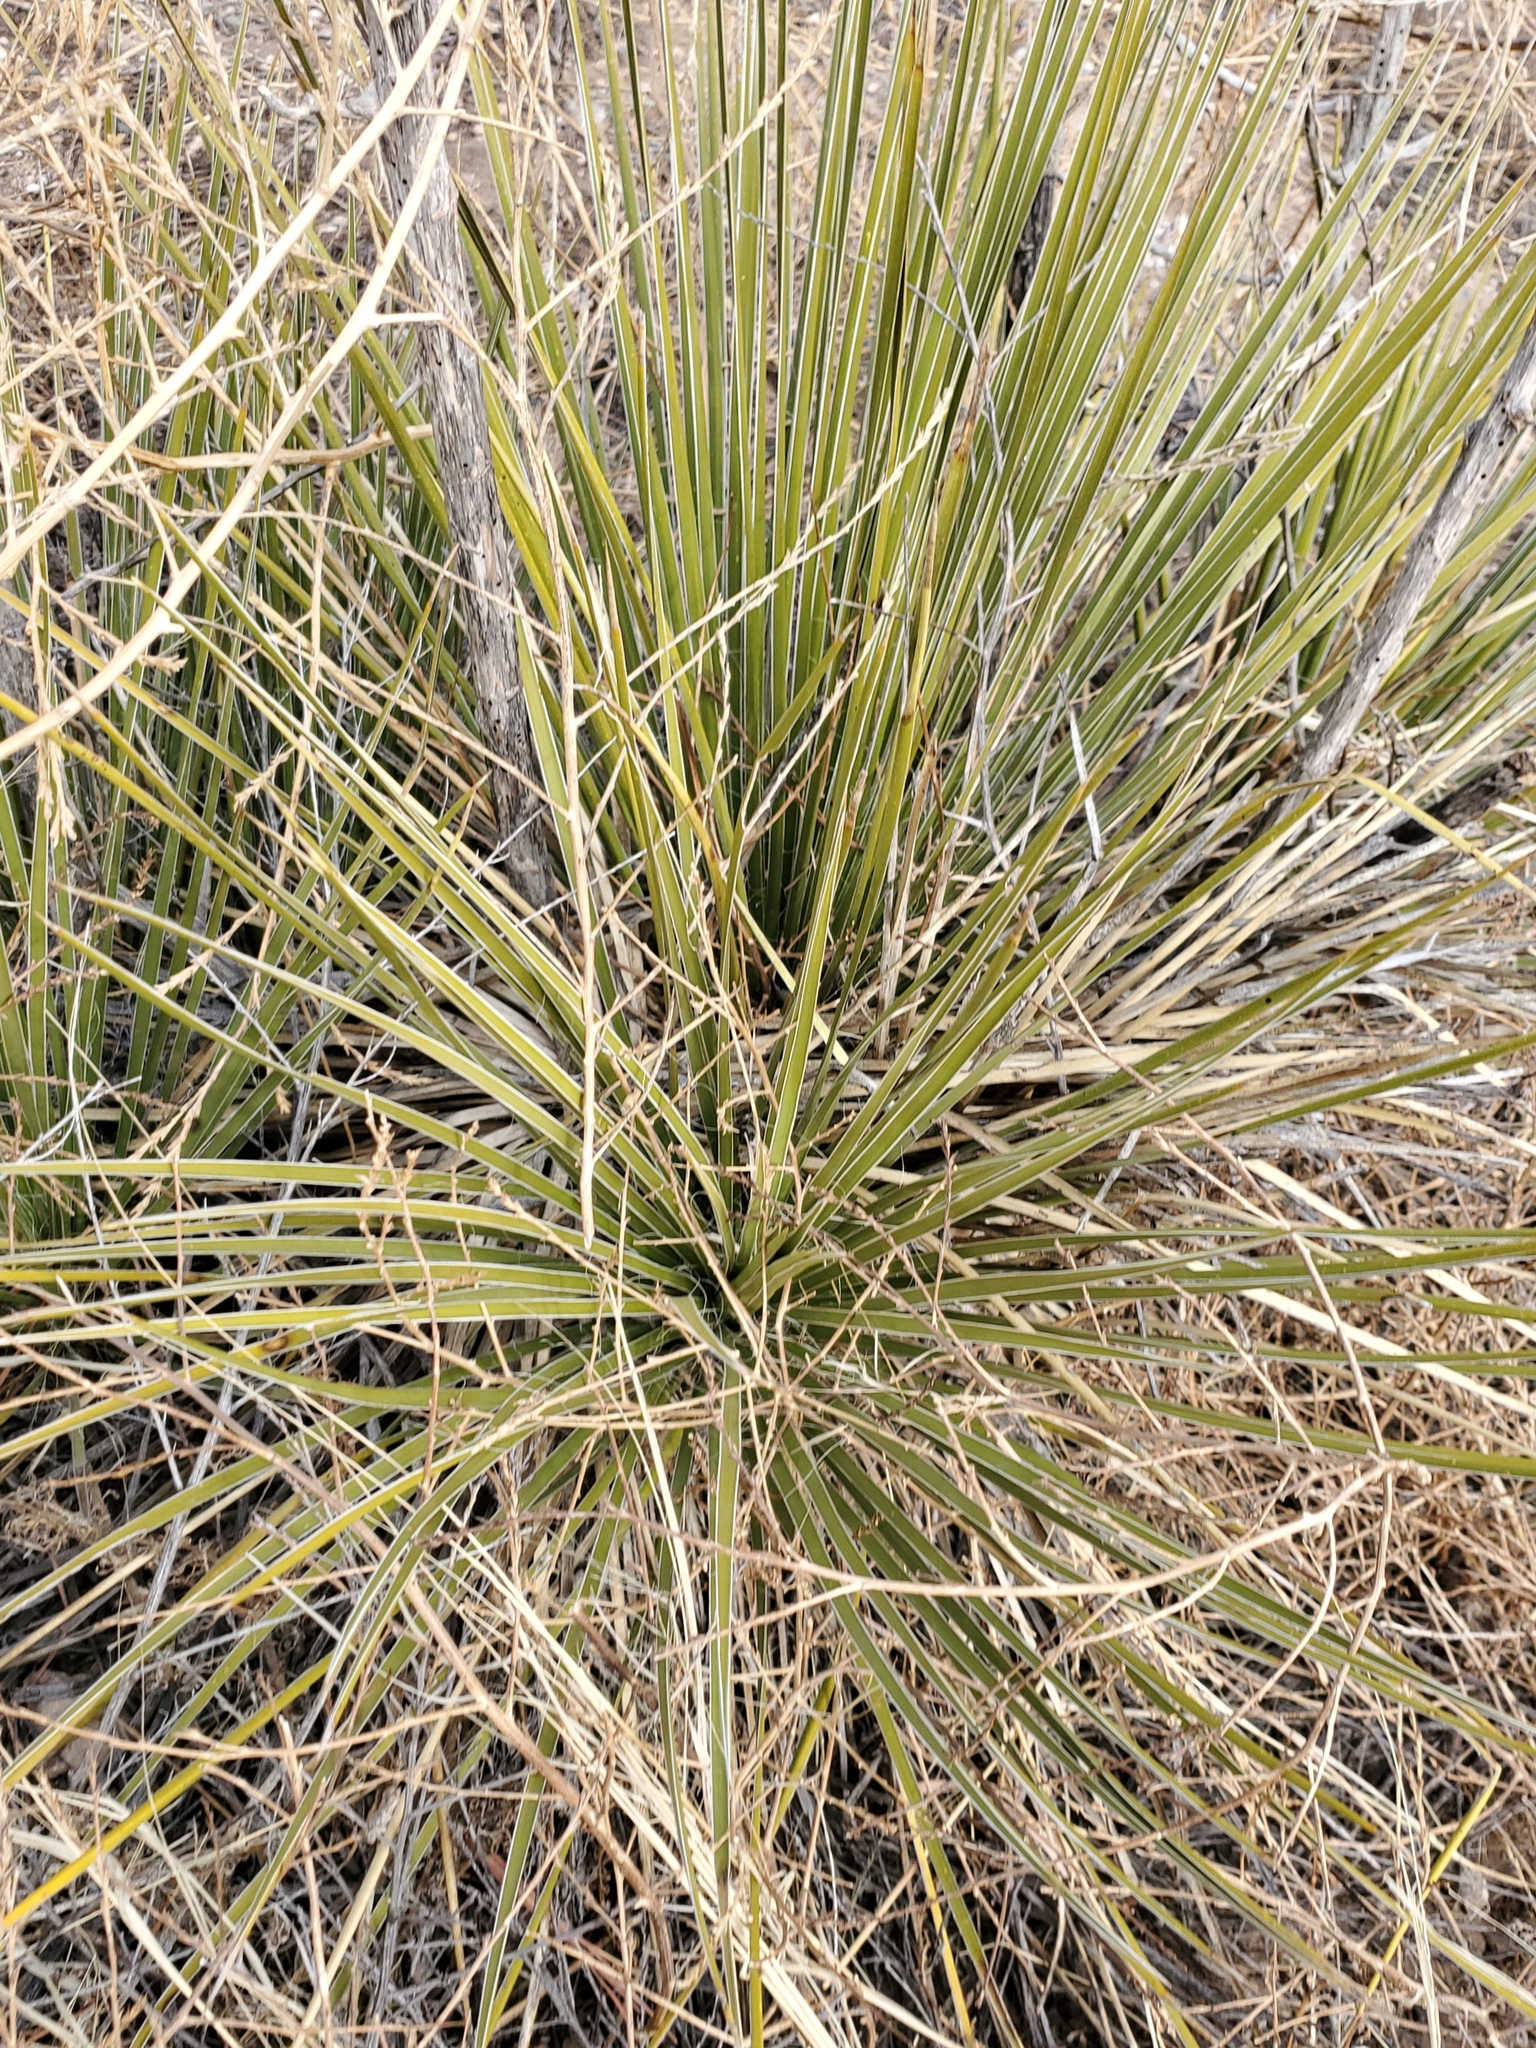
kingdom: Plantae
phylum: Tracheophyta
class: Liliopsida
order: Asparagales
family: Asparagaceae
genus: Yucca
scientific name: Yucca glauca
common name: Great plains yucca
